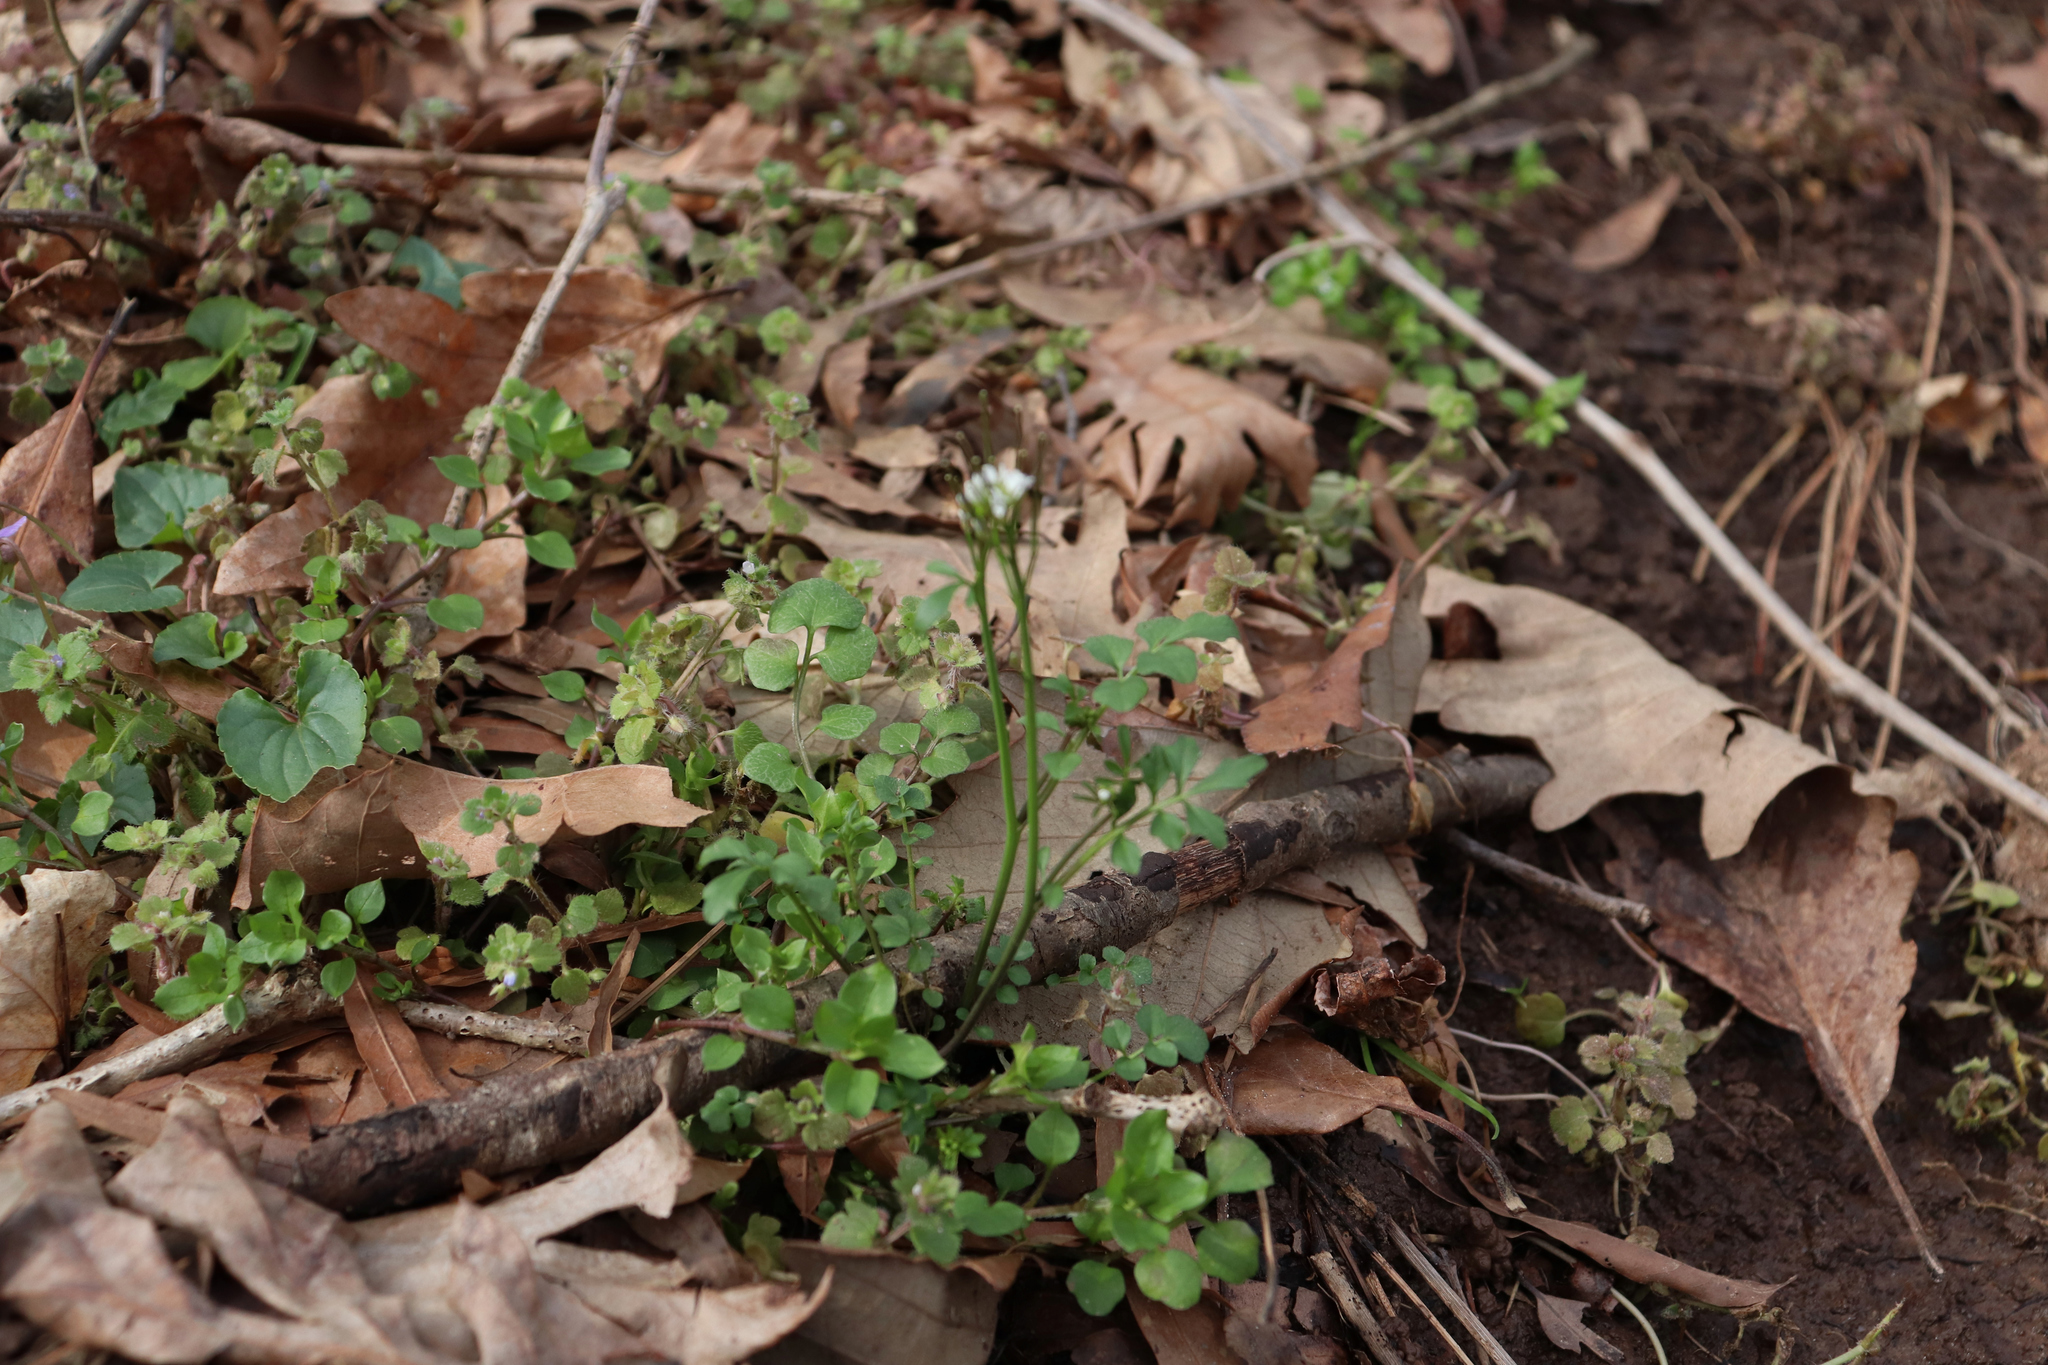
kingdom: Plantae
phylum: Tracheophyta
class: Magnoliopsida
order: Brassicales
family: Brassicaceae
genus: Cardamine
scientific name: Cardamine hirsuta
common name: Hairy bittercress
